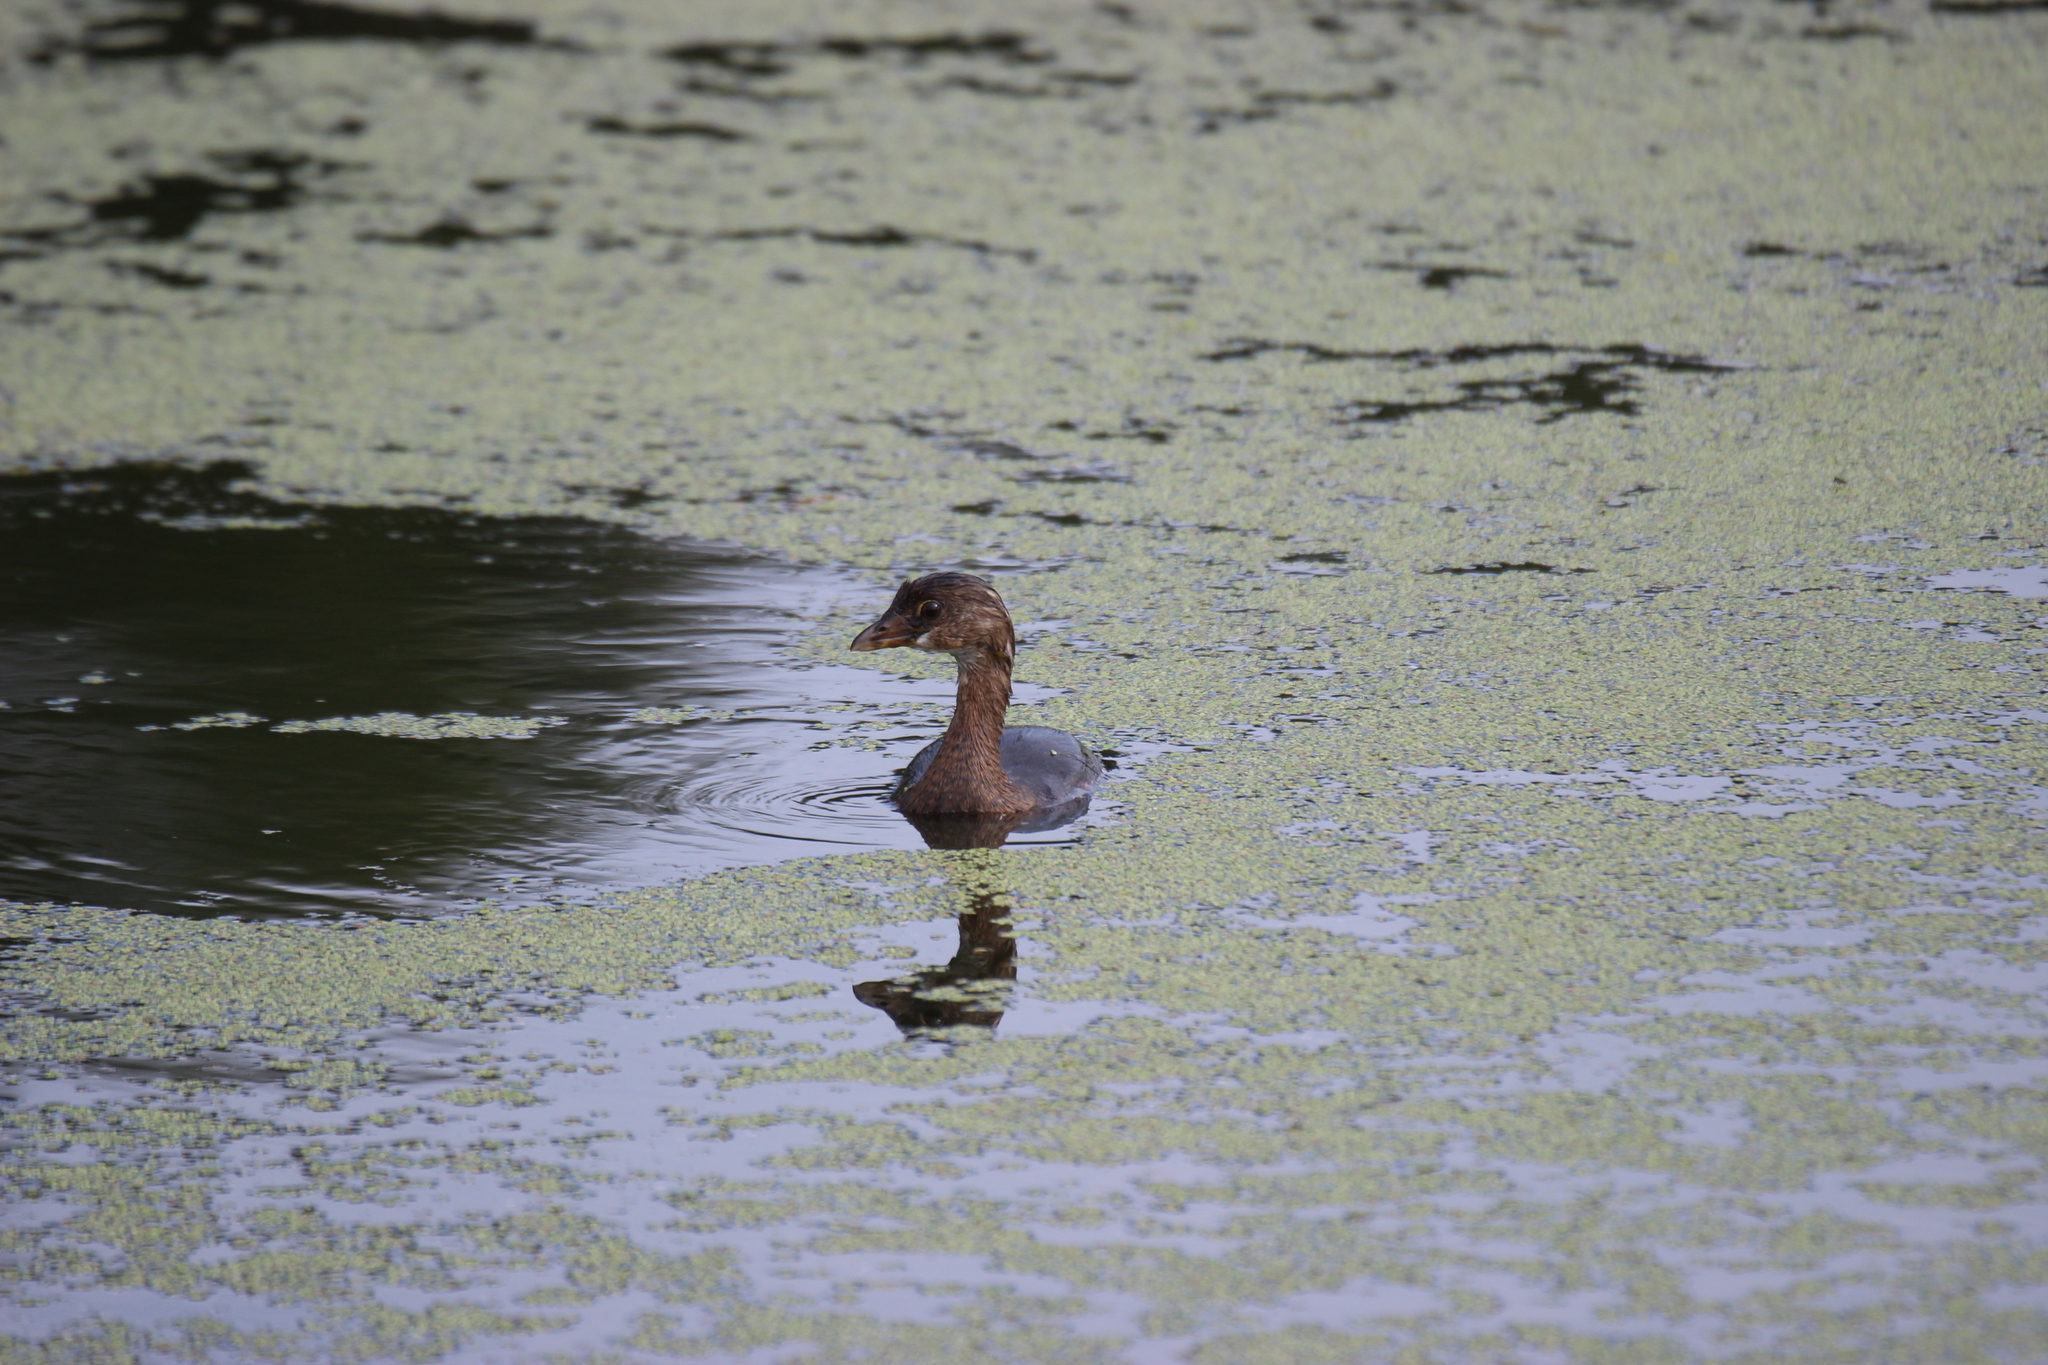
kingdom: Animalia
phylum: Chordata
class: Aves
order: Podicipediformes
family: Podicipedidae
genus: Podilymbus
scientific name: Podilymbus podiceps
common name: Pied-billed grebe
